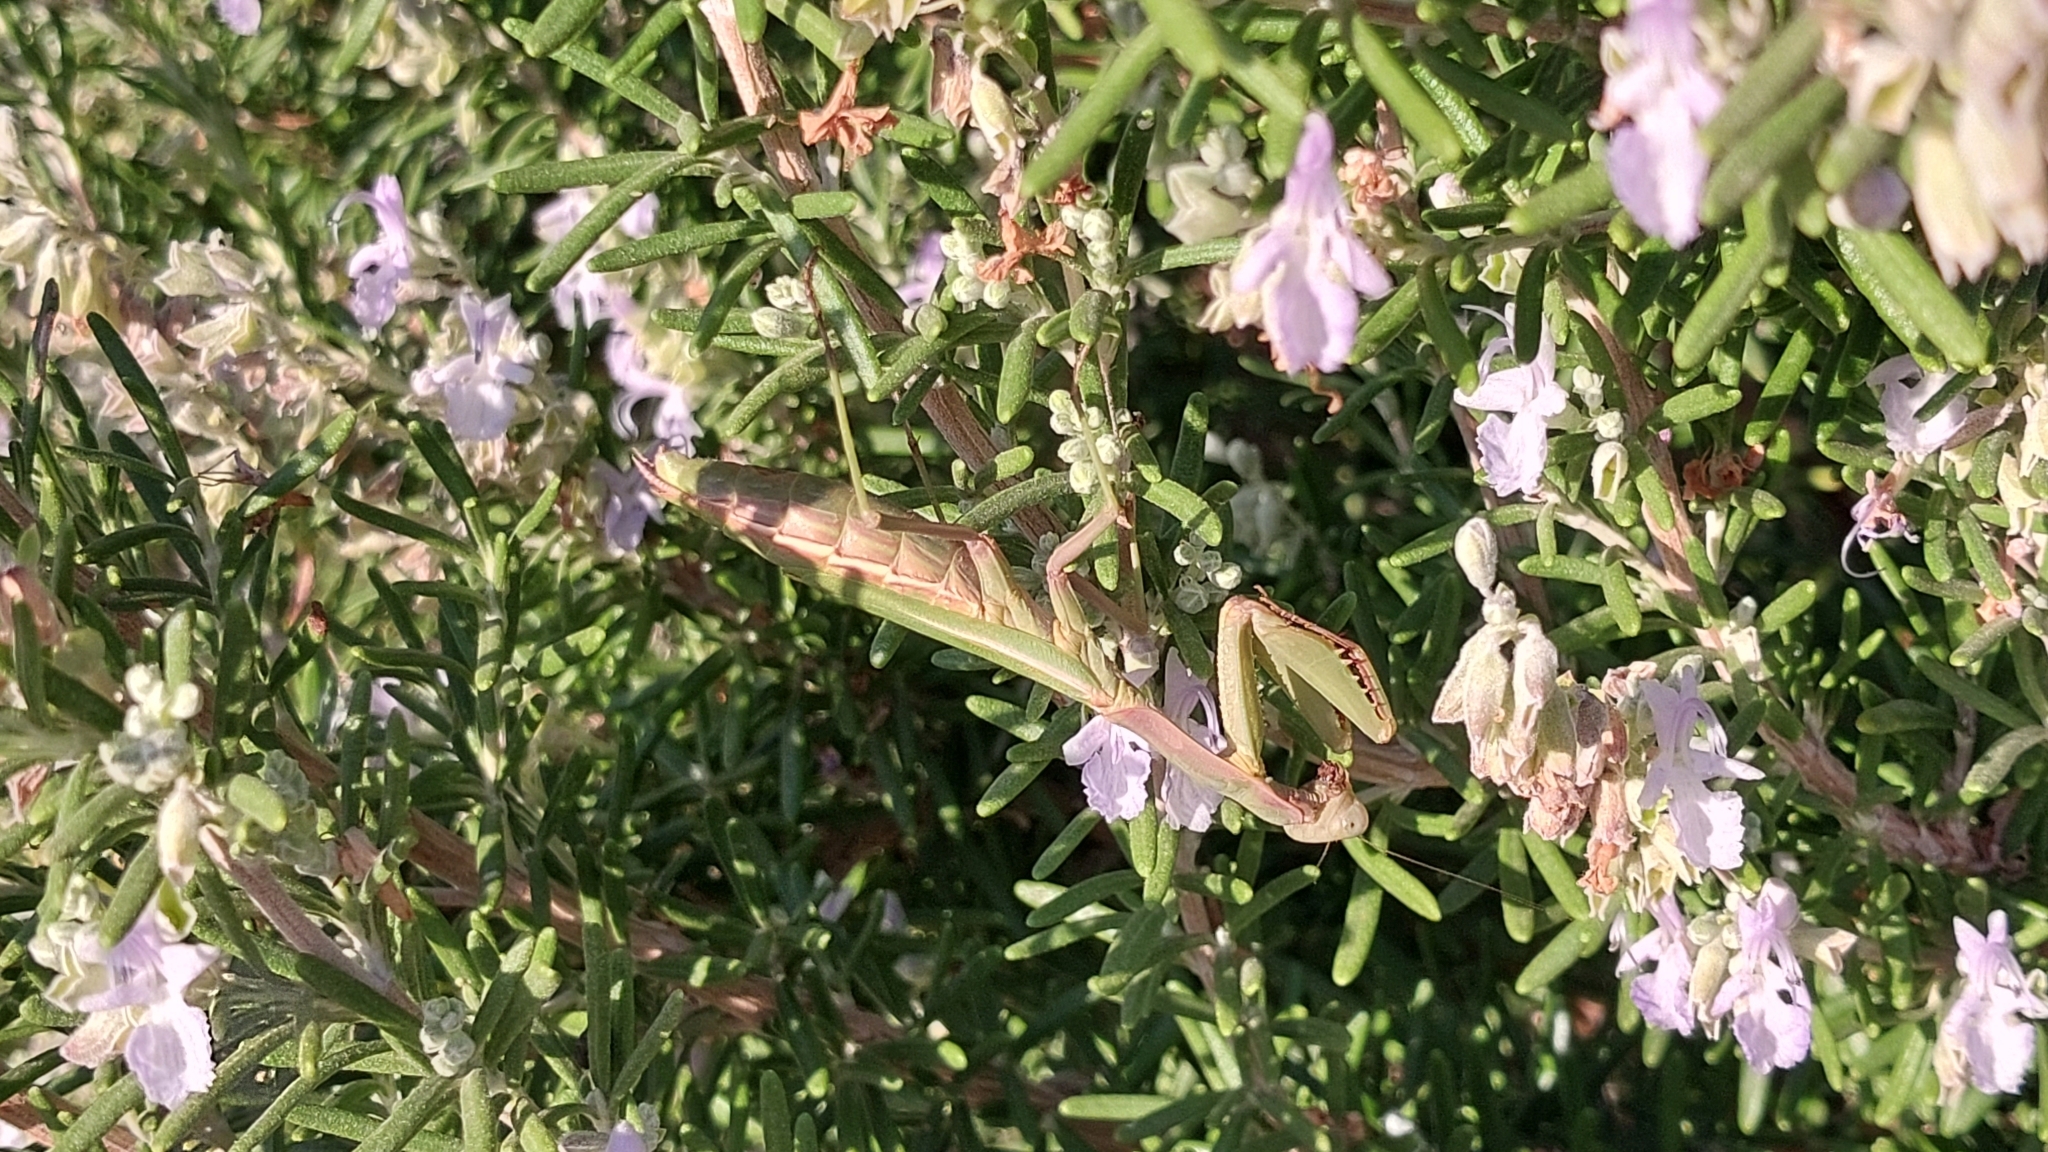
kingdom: Animalia
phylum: Arthropoda
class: Insecta
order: Mantodea
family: Eremiaphilidae
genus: Iris
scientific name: Iris oratoria
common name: Mediterranean mantis
